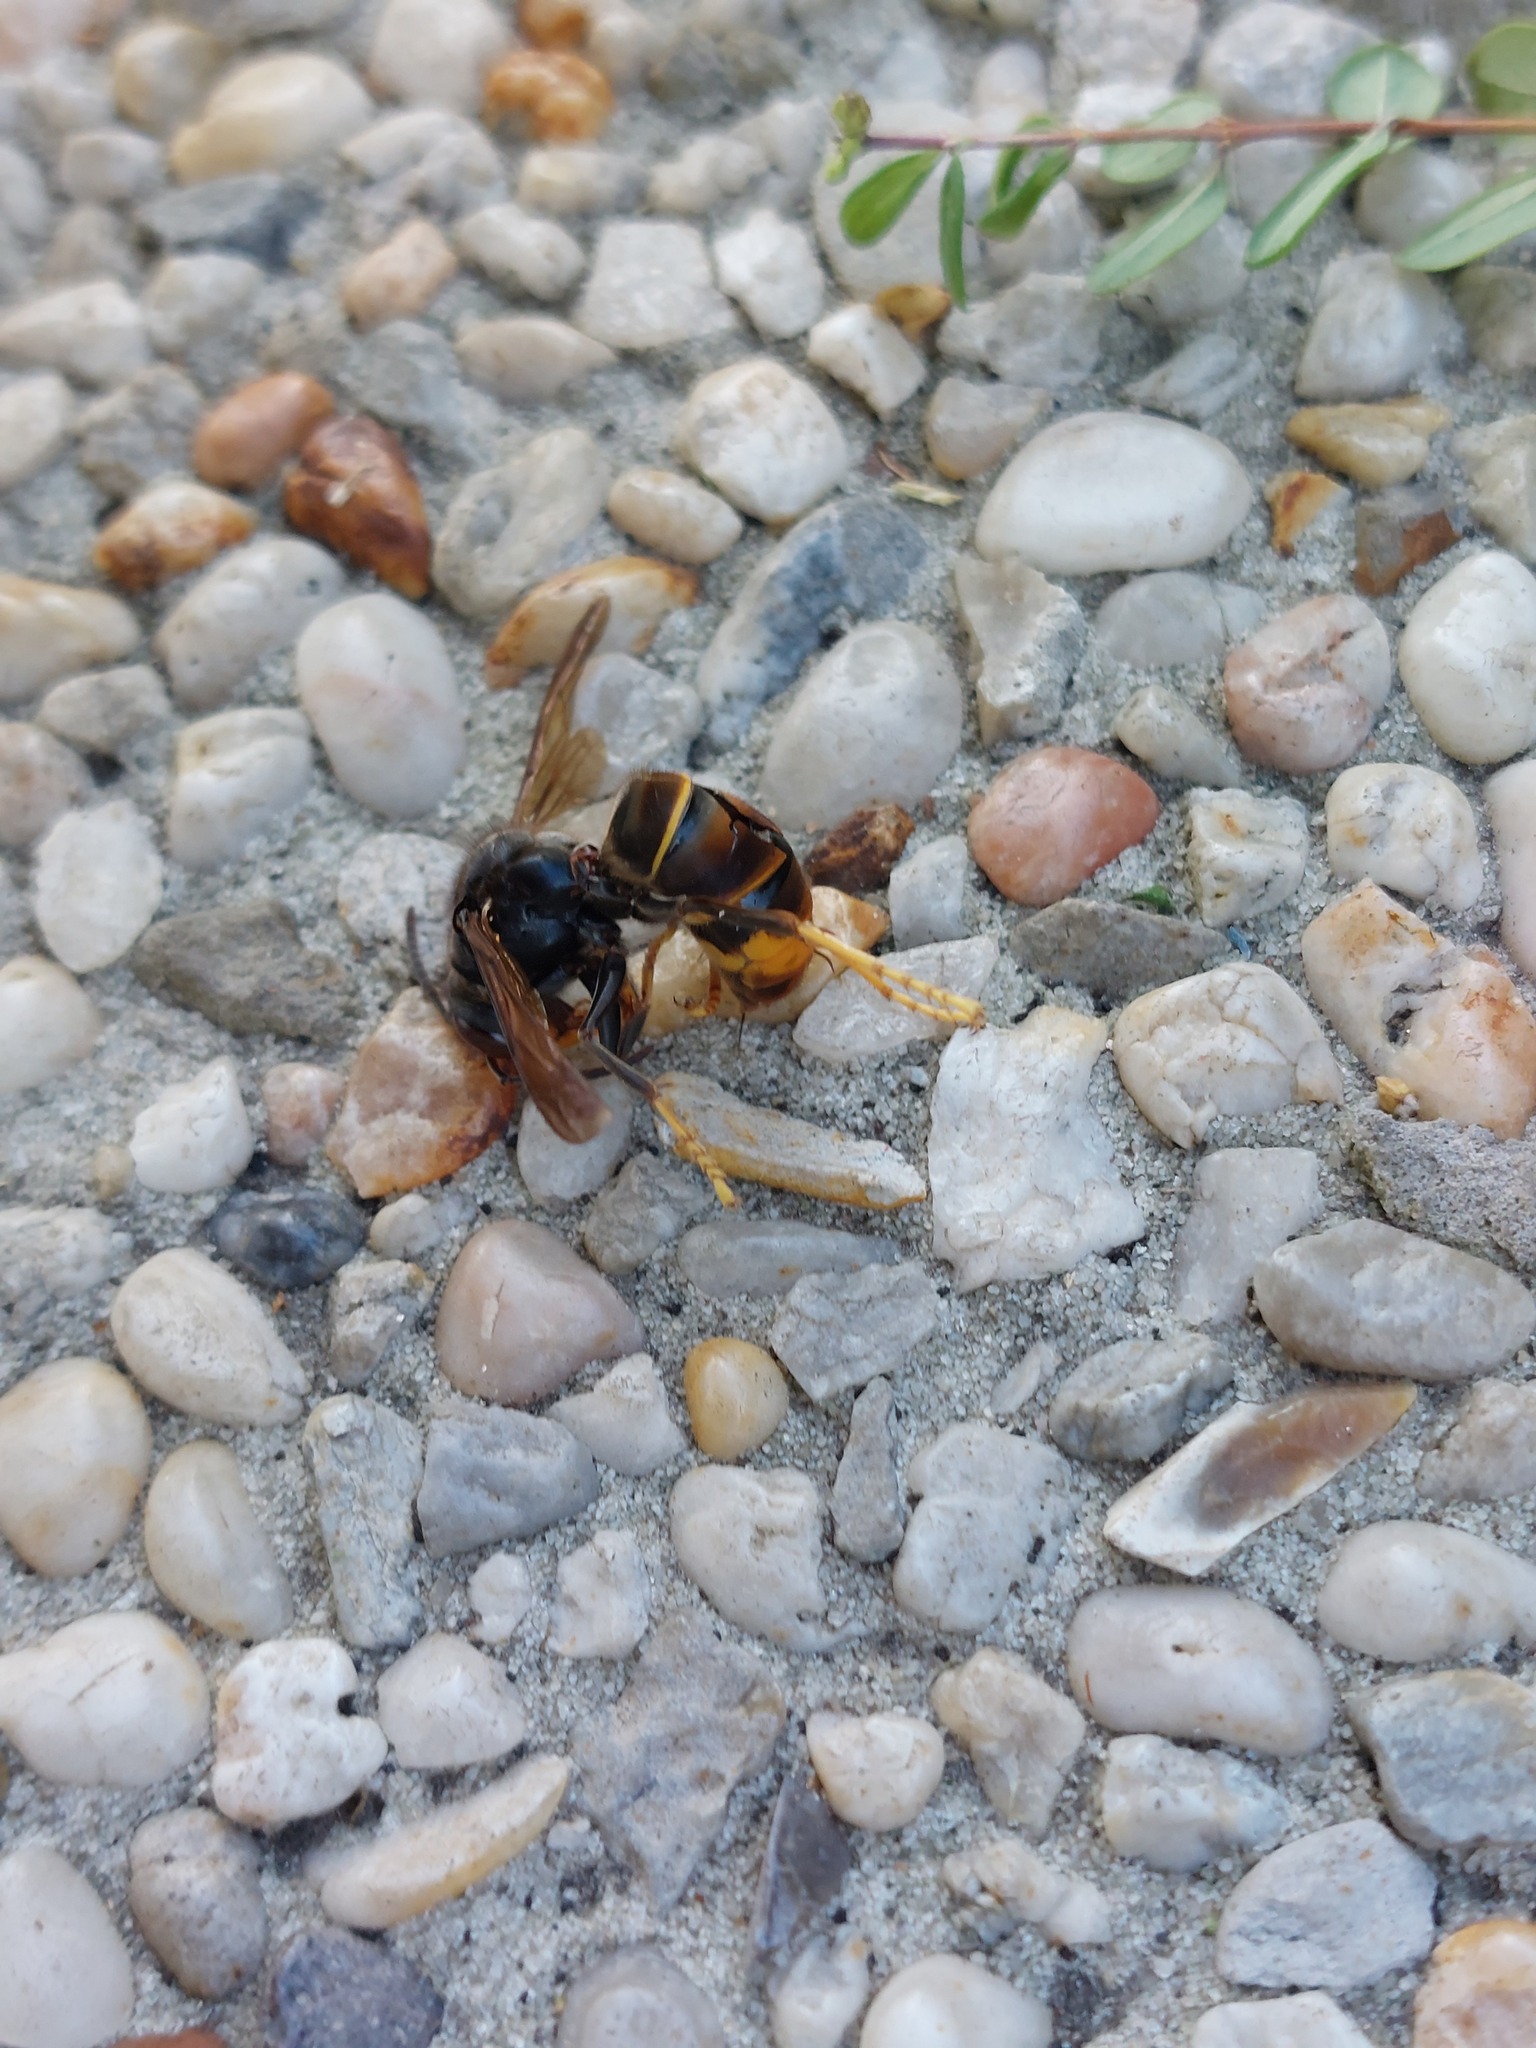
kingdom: Animalia
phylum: Arthropoda
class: Insecta
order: Hymenoptera
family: Vespidae
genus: Vespa
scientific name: Vespa velutina
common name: Asian hornet
